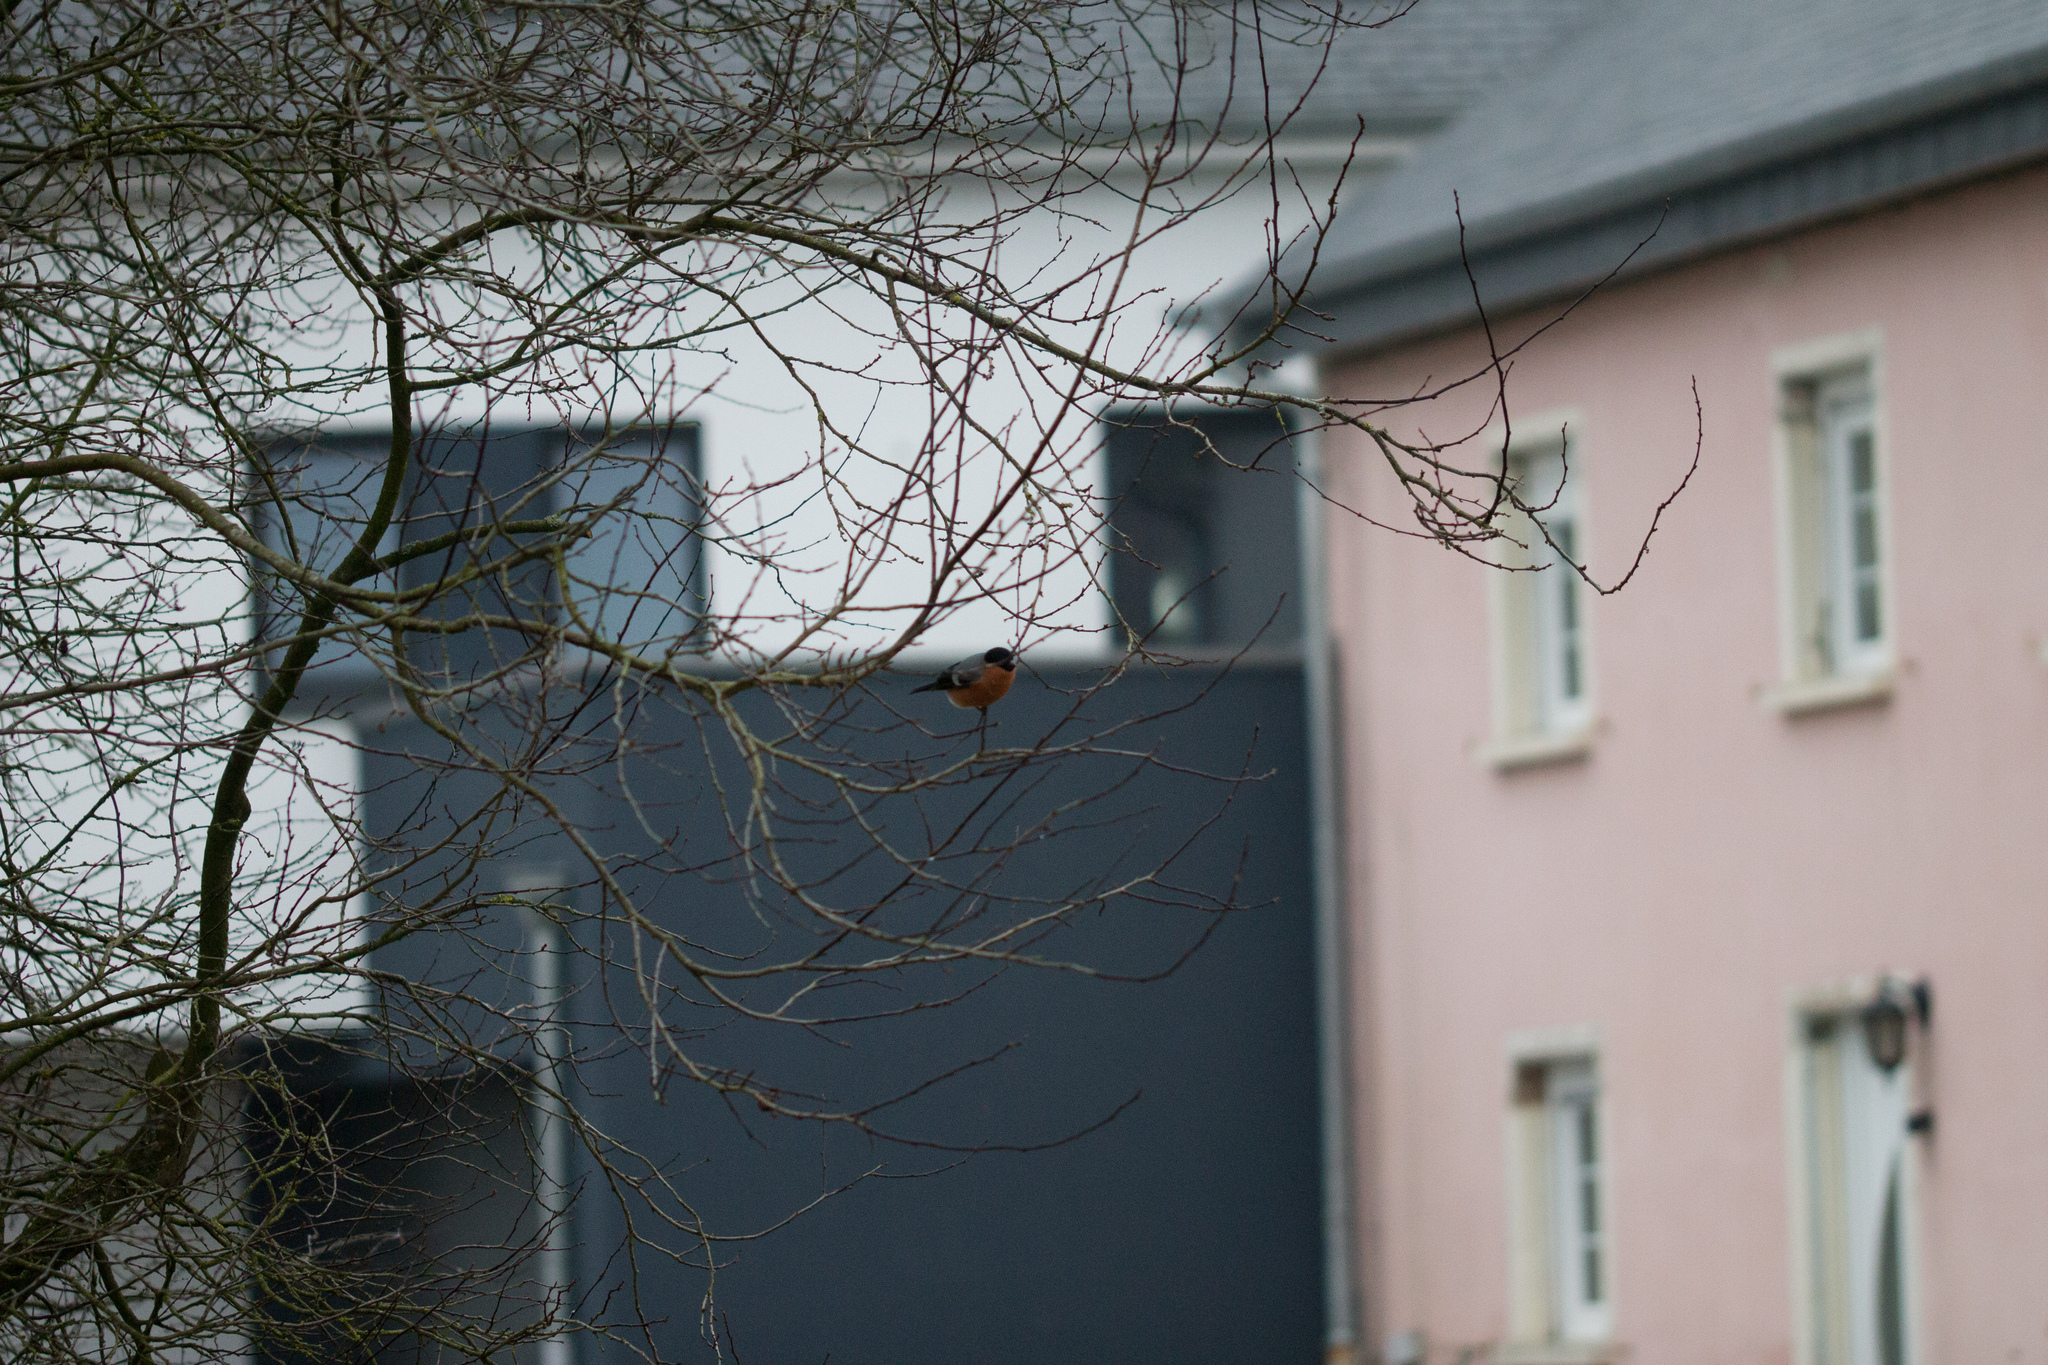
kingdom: Animalia
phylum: Chordata
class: Aves
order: Passeriformes
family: Fringillidae
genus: Pyrrhula
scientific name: Pyrrhula pyrrhula
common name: Eurasian bullfinch
